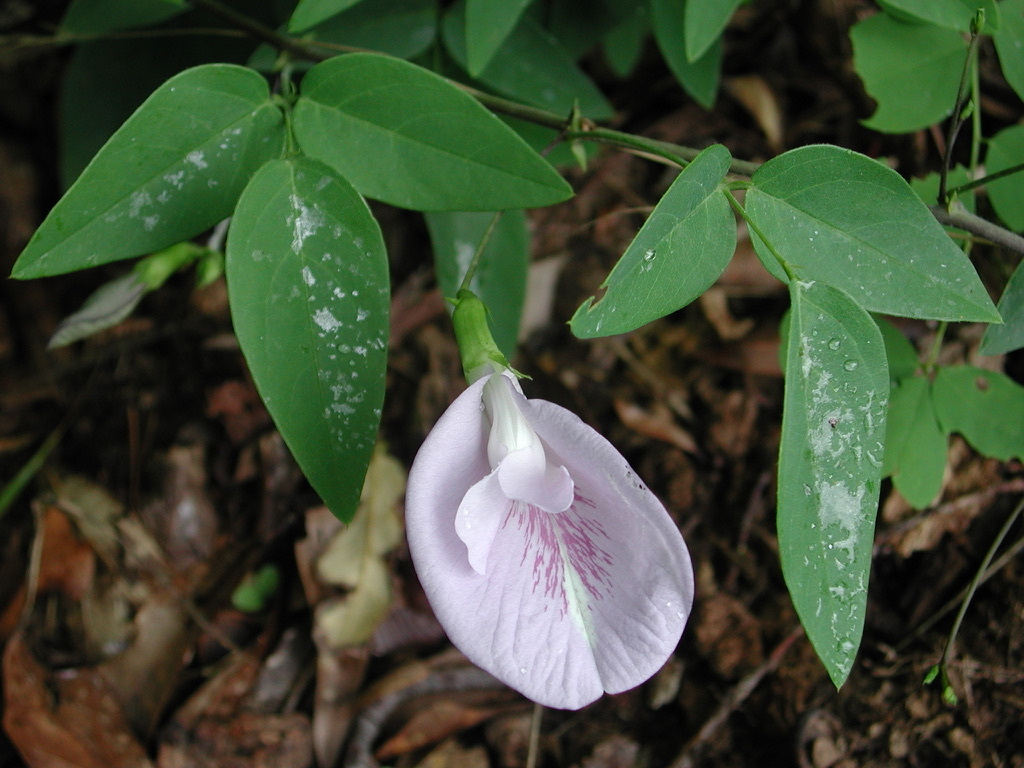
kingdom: Plantae
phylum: Tracheophyta
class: Magnoliopsida
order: Fabales
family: Fabaceae
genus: Clitoria
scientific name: Clitoria mariana
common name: Butterfly-pea
